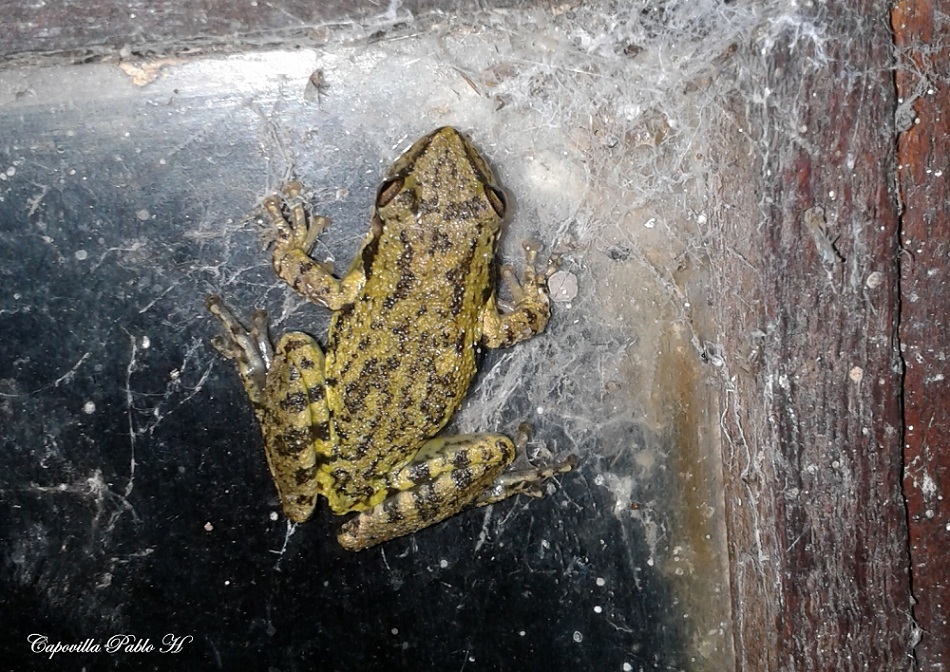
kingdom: Animalia
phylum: Chordata
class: Amphibia
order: Anura
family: Hylidae
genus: Scinax
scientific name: Scinax fuscovarius
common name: Fuscous-blotched treefrog
